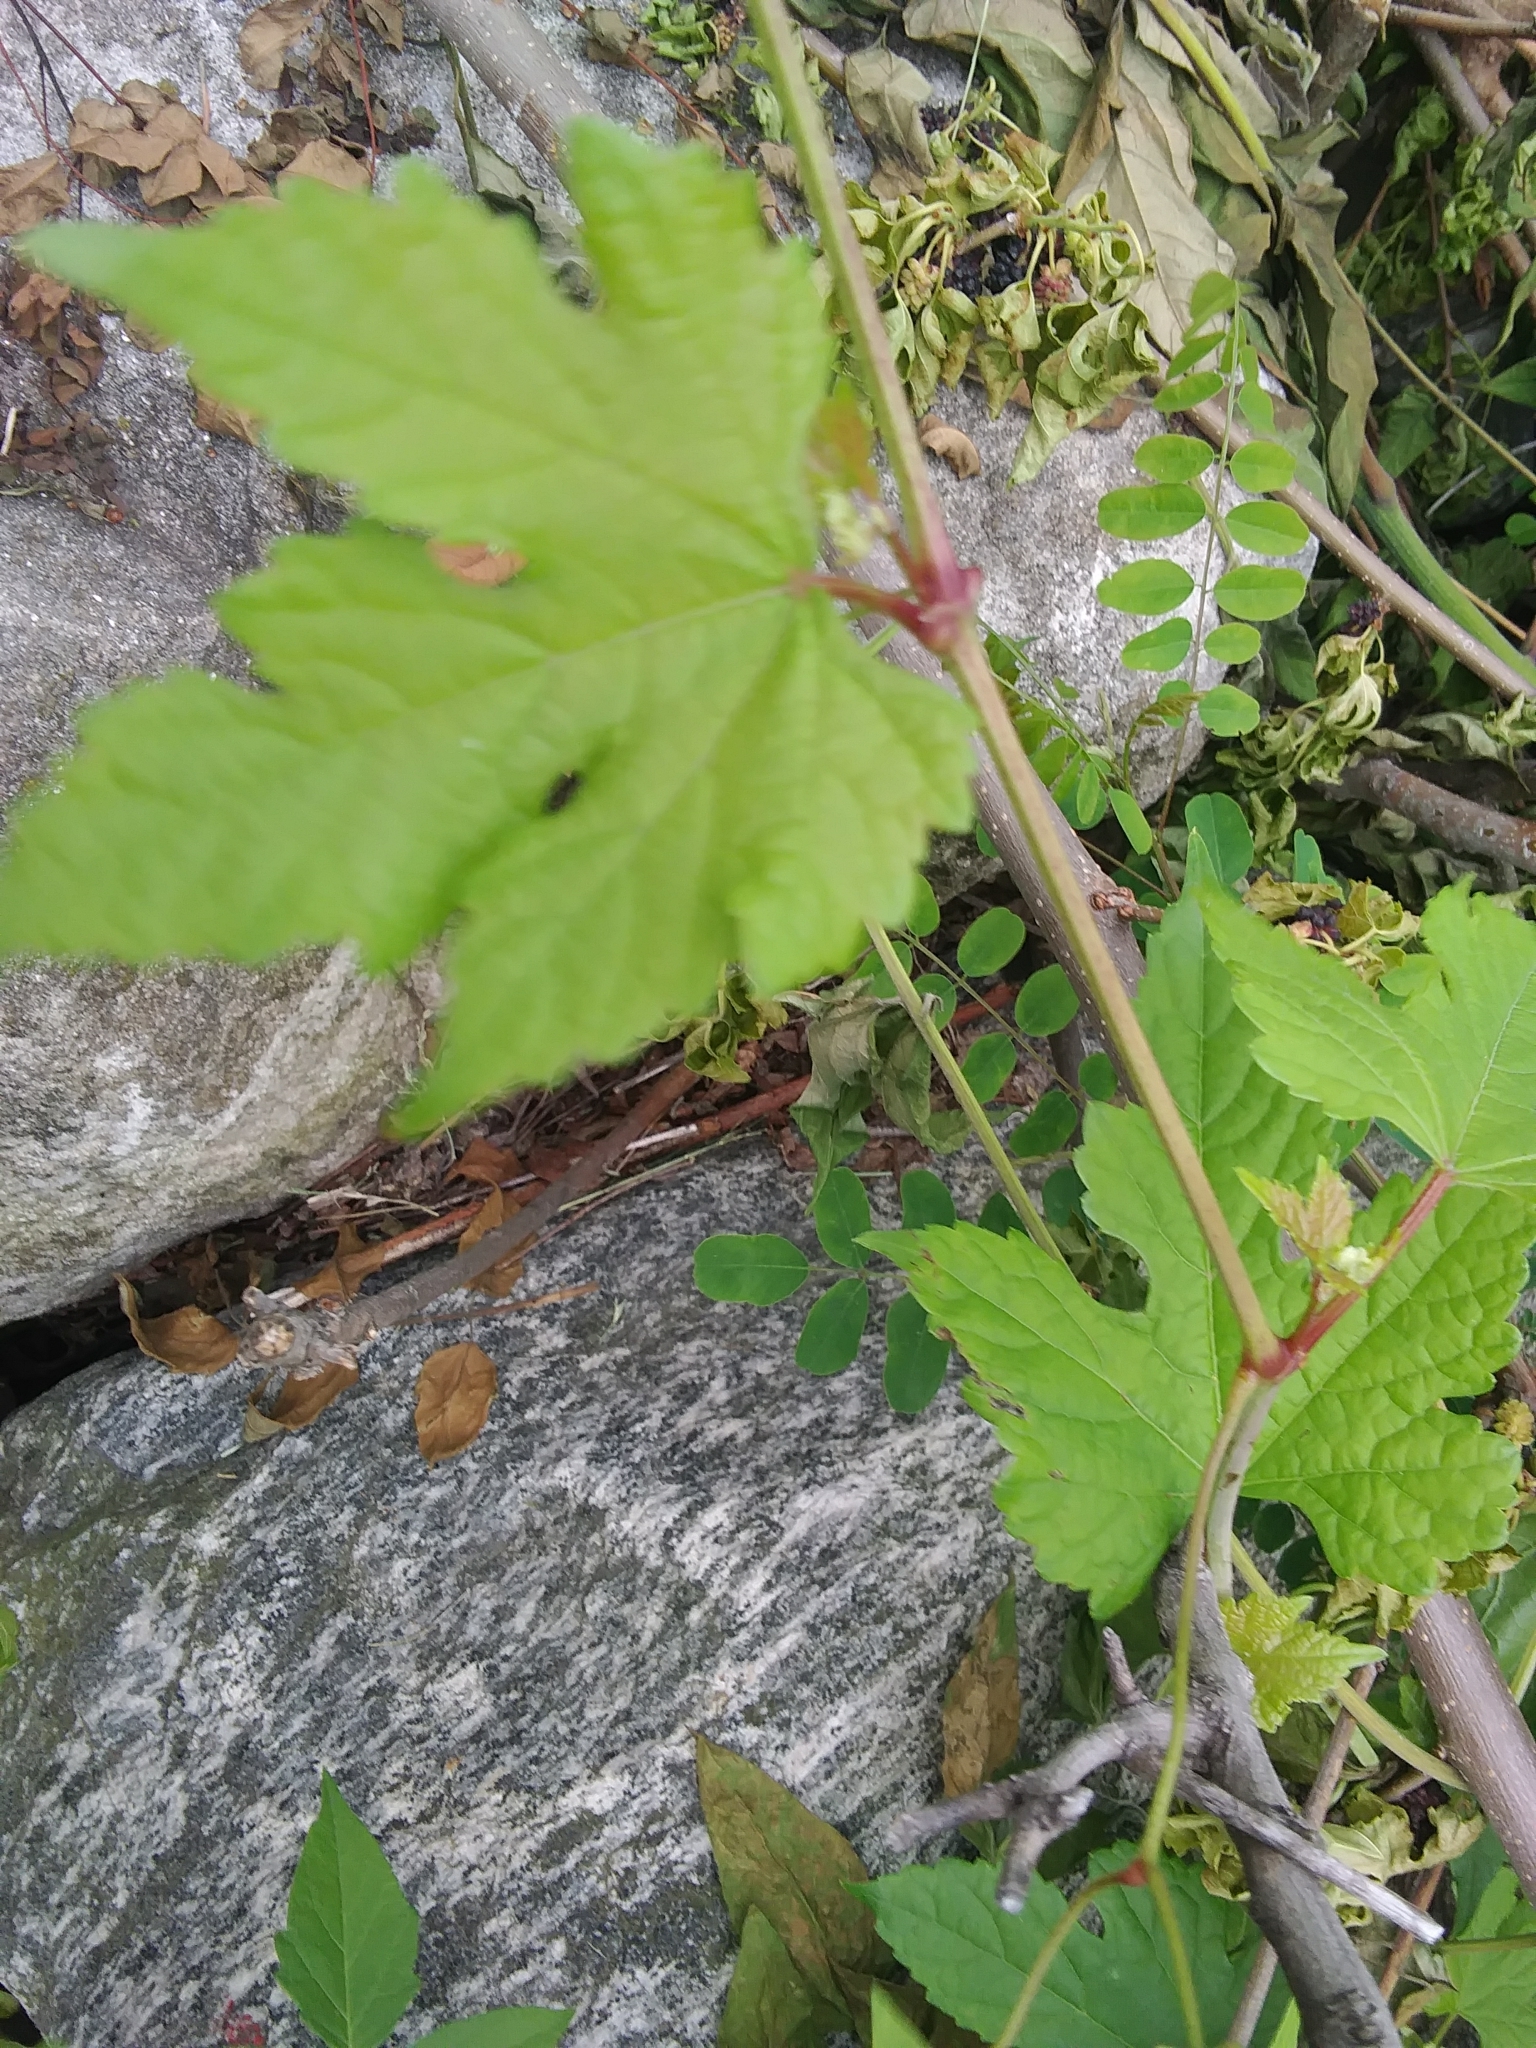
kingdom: Plantae
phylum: Tracheophyta
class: Magnoliopsida
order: Vitales
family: Vitaceae
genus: Ampelopsis
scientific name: Ampelopsis glandulosa
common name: Amur peppervine
